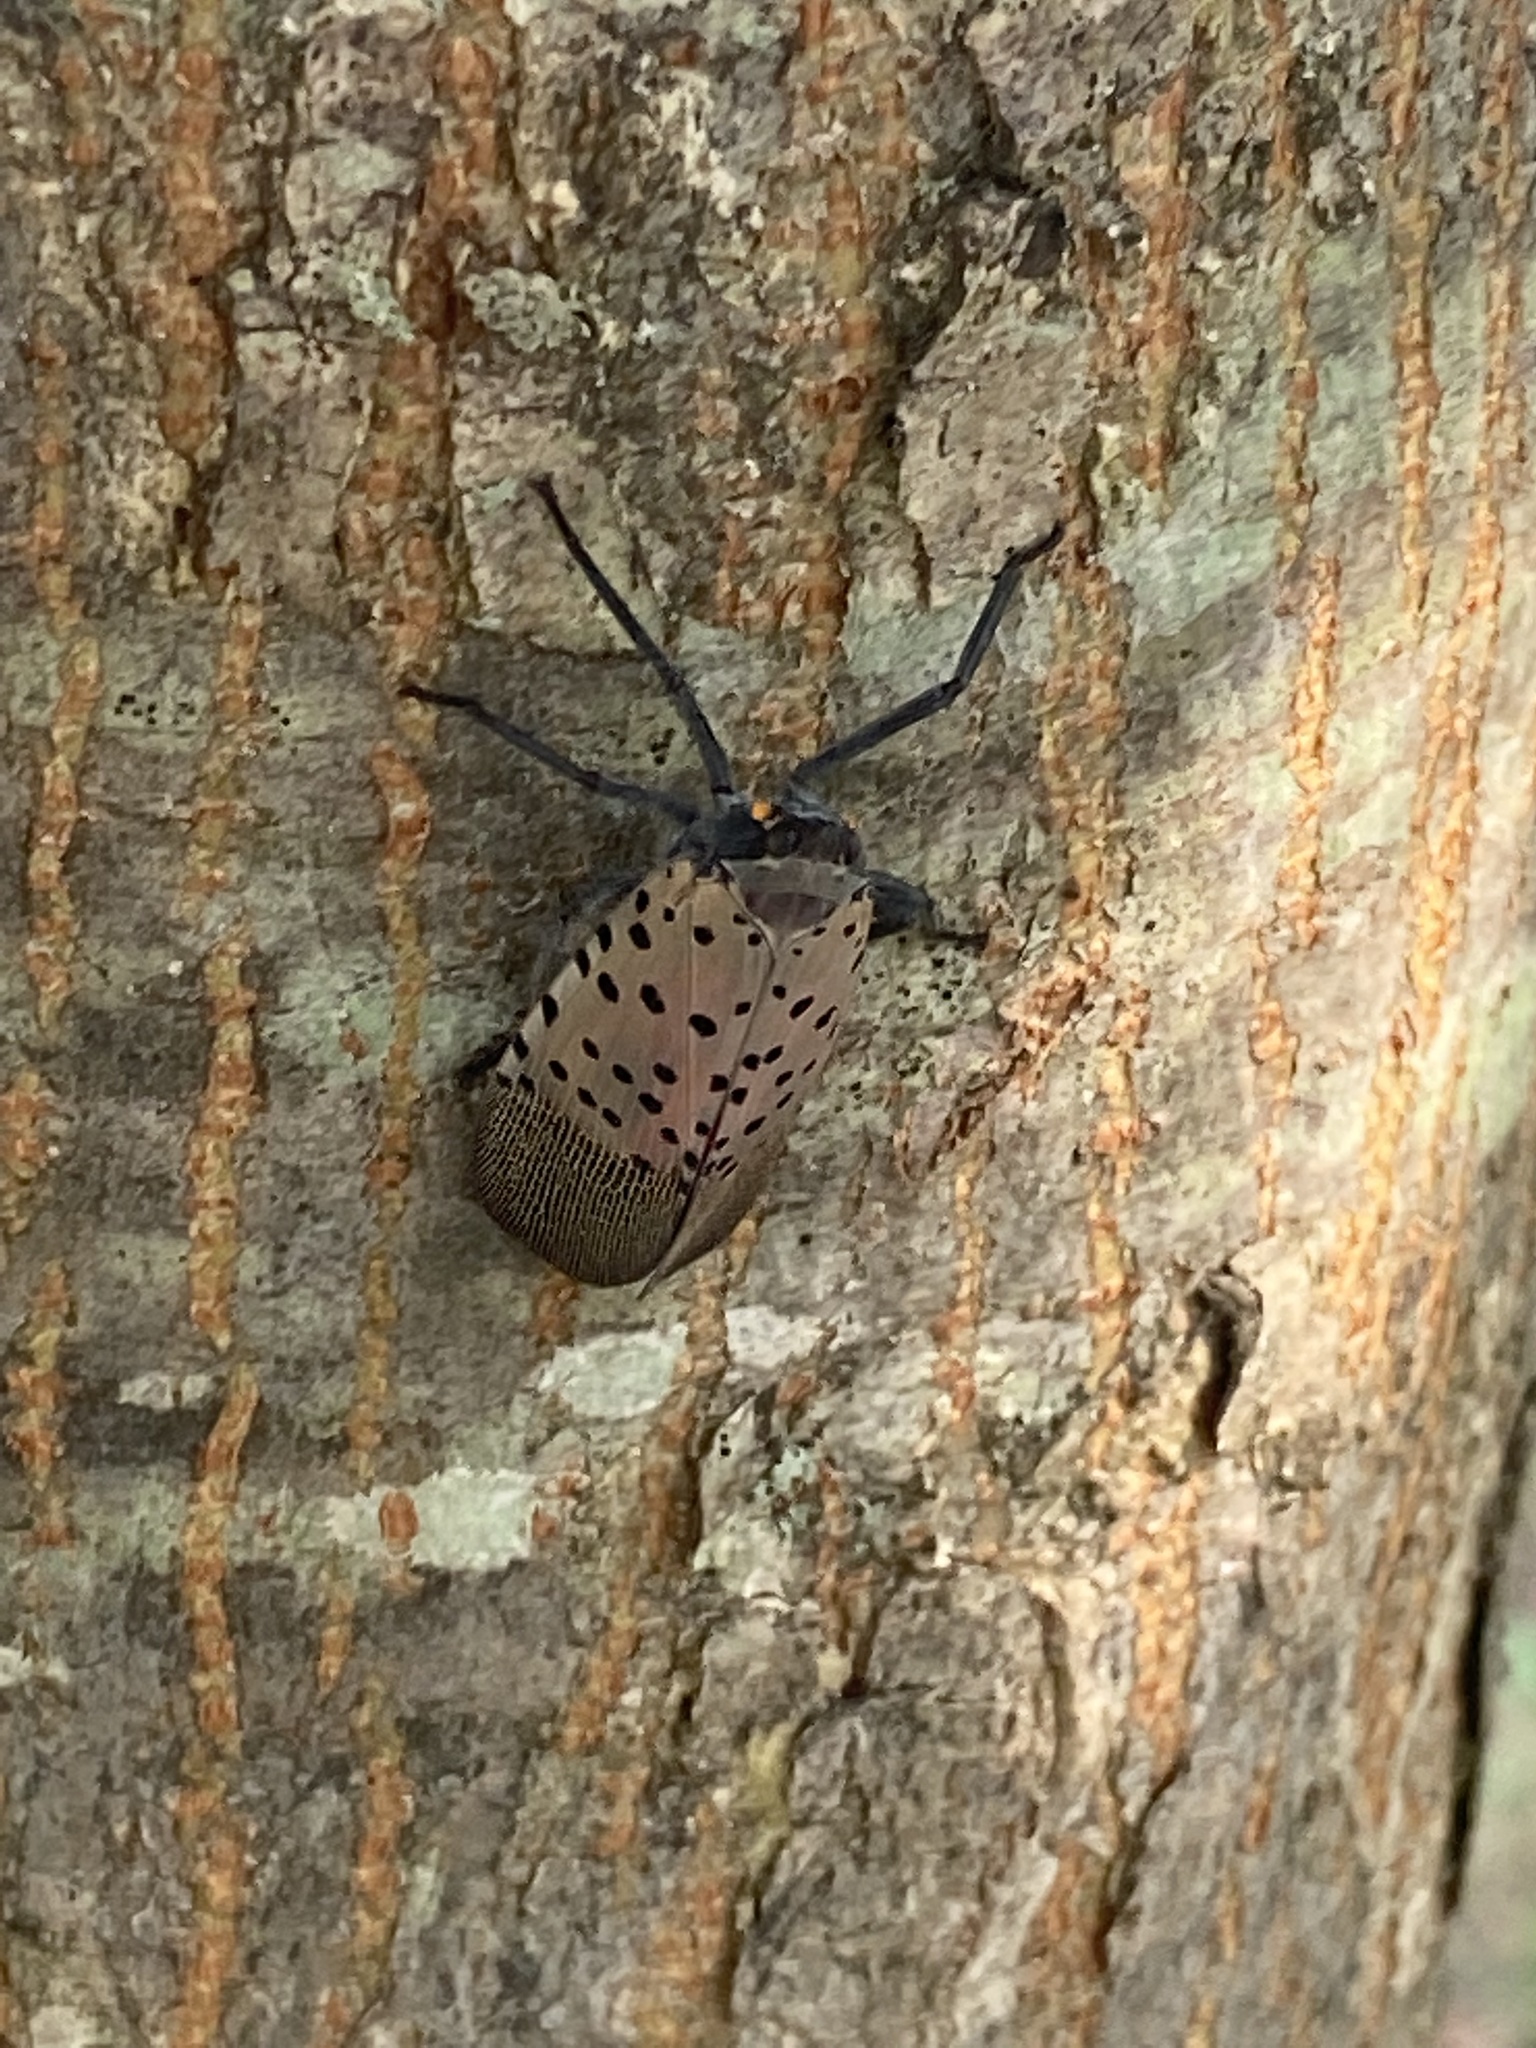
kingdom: Animalia
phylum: Arthropoda
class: Insecta
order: Hemiptera
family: Fulgoridae
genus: Lycorma
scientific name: Lycorma delicatula
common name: Spotted lanternfly
